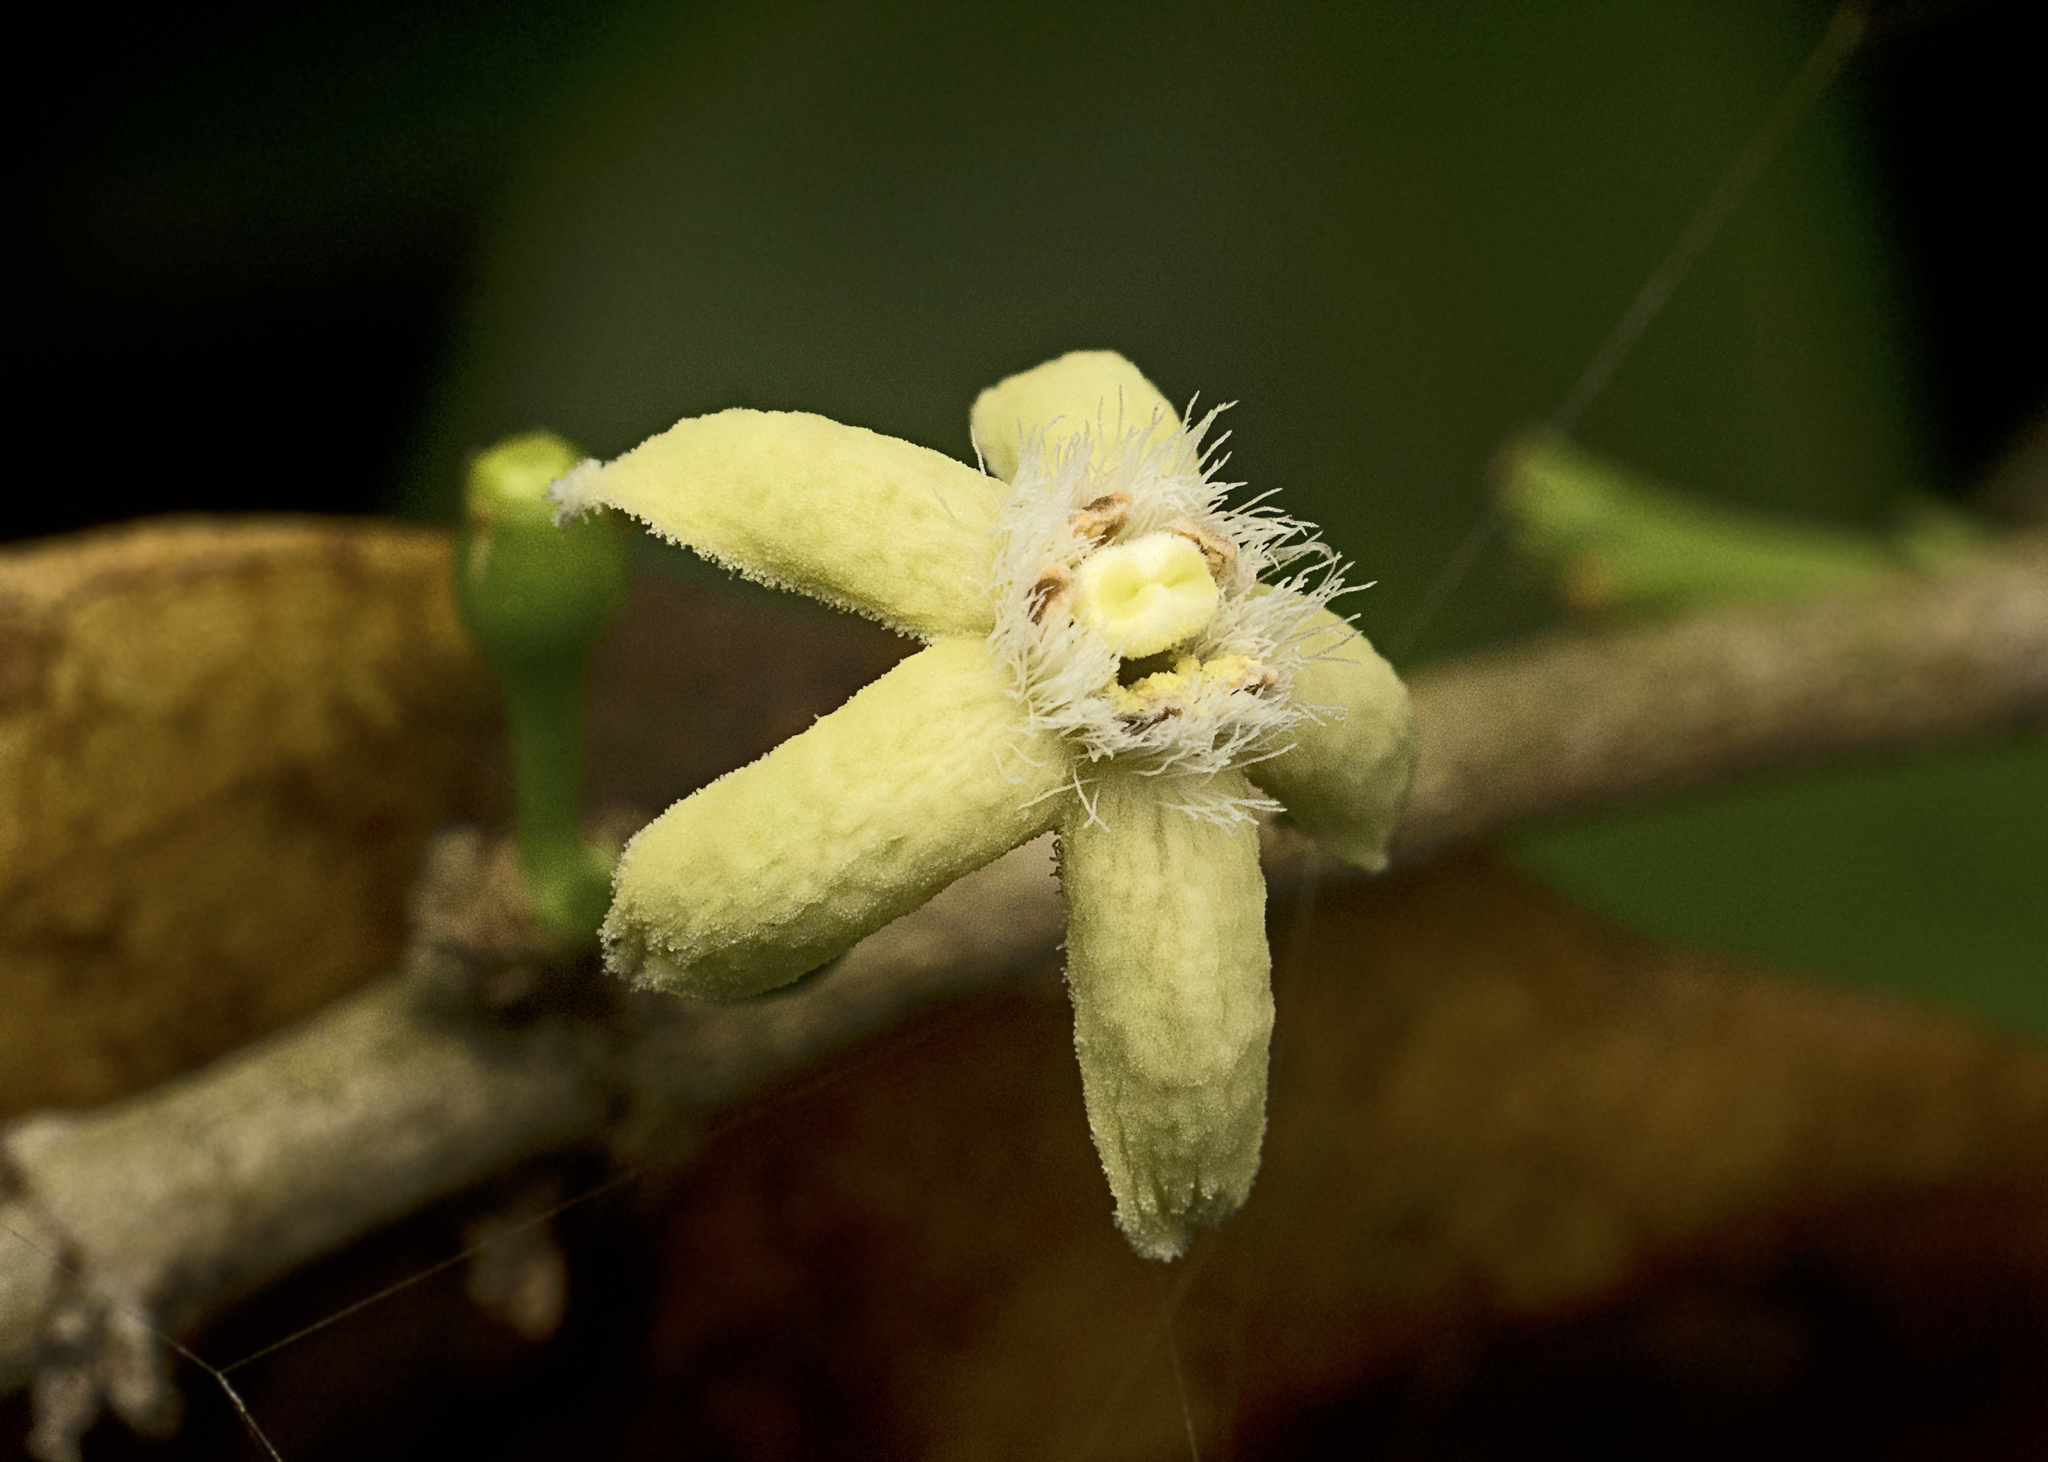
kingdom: Plantae
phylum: Tracheophyta
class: Magnoliopsida
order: Gentianales
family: Rubiaceae
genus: Cyclophyllum
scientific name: Cyclophyllum coprosmoides
